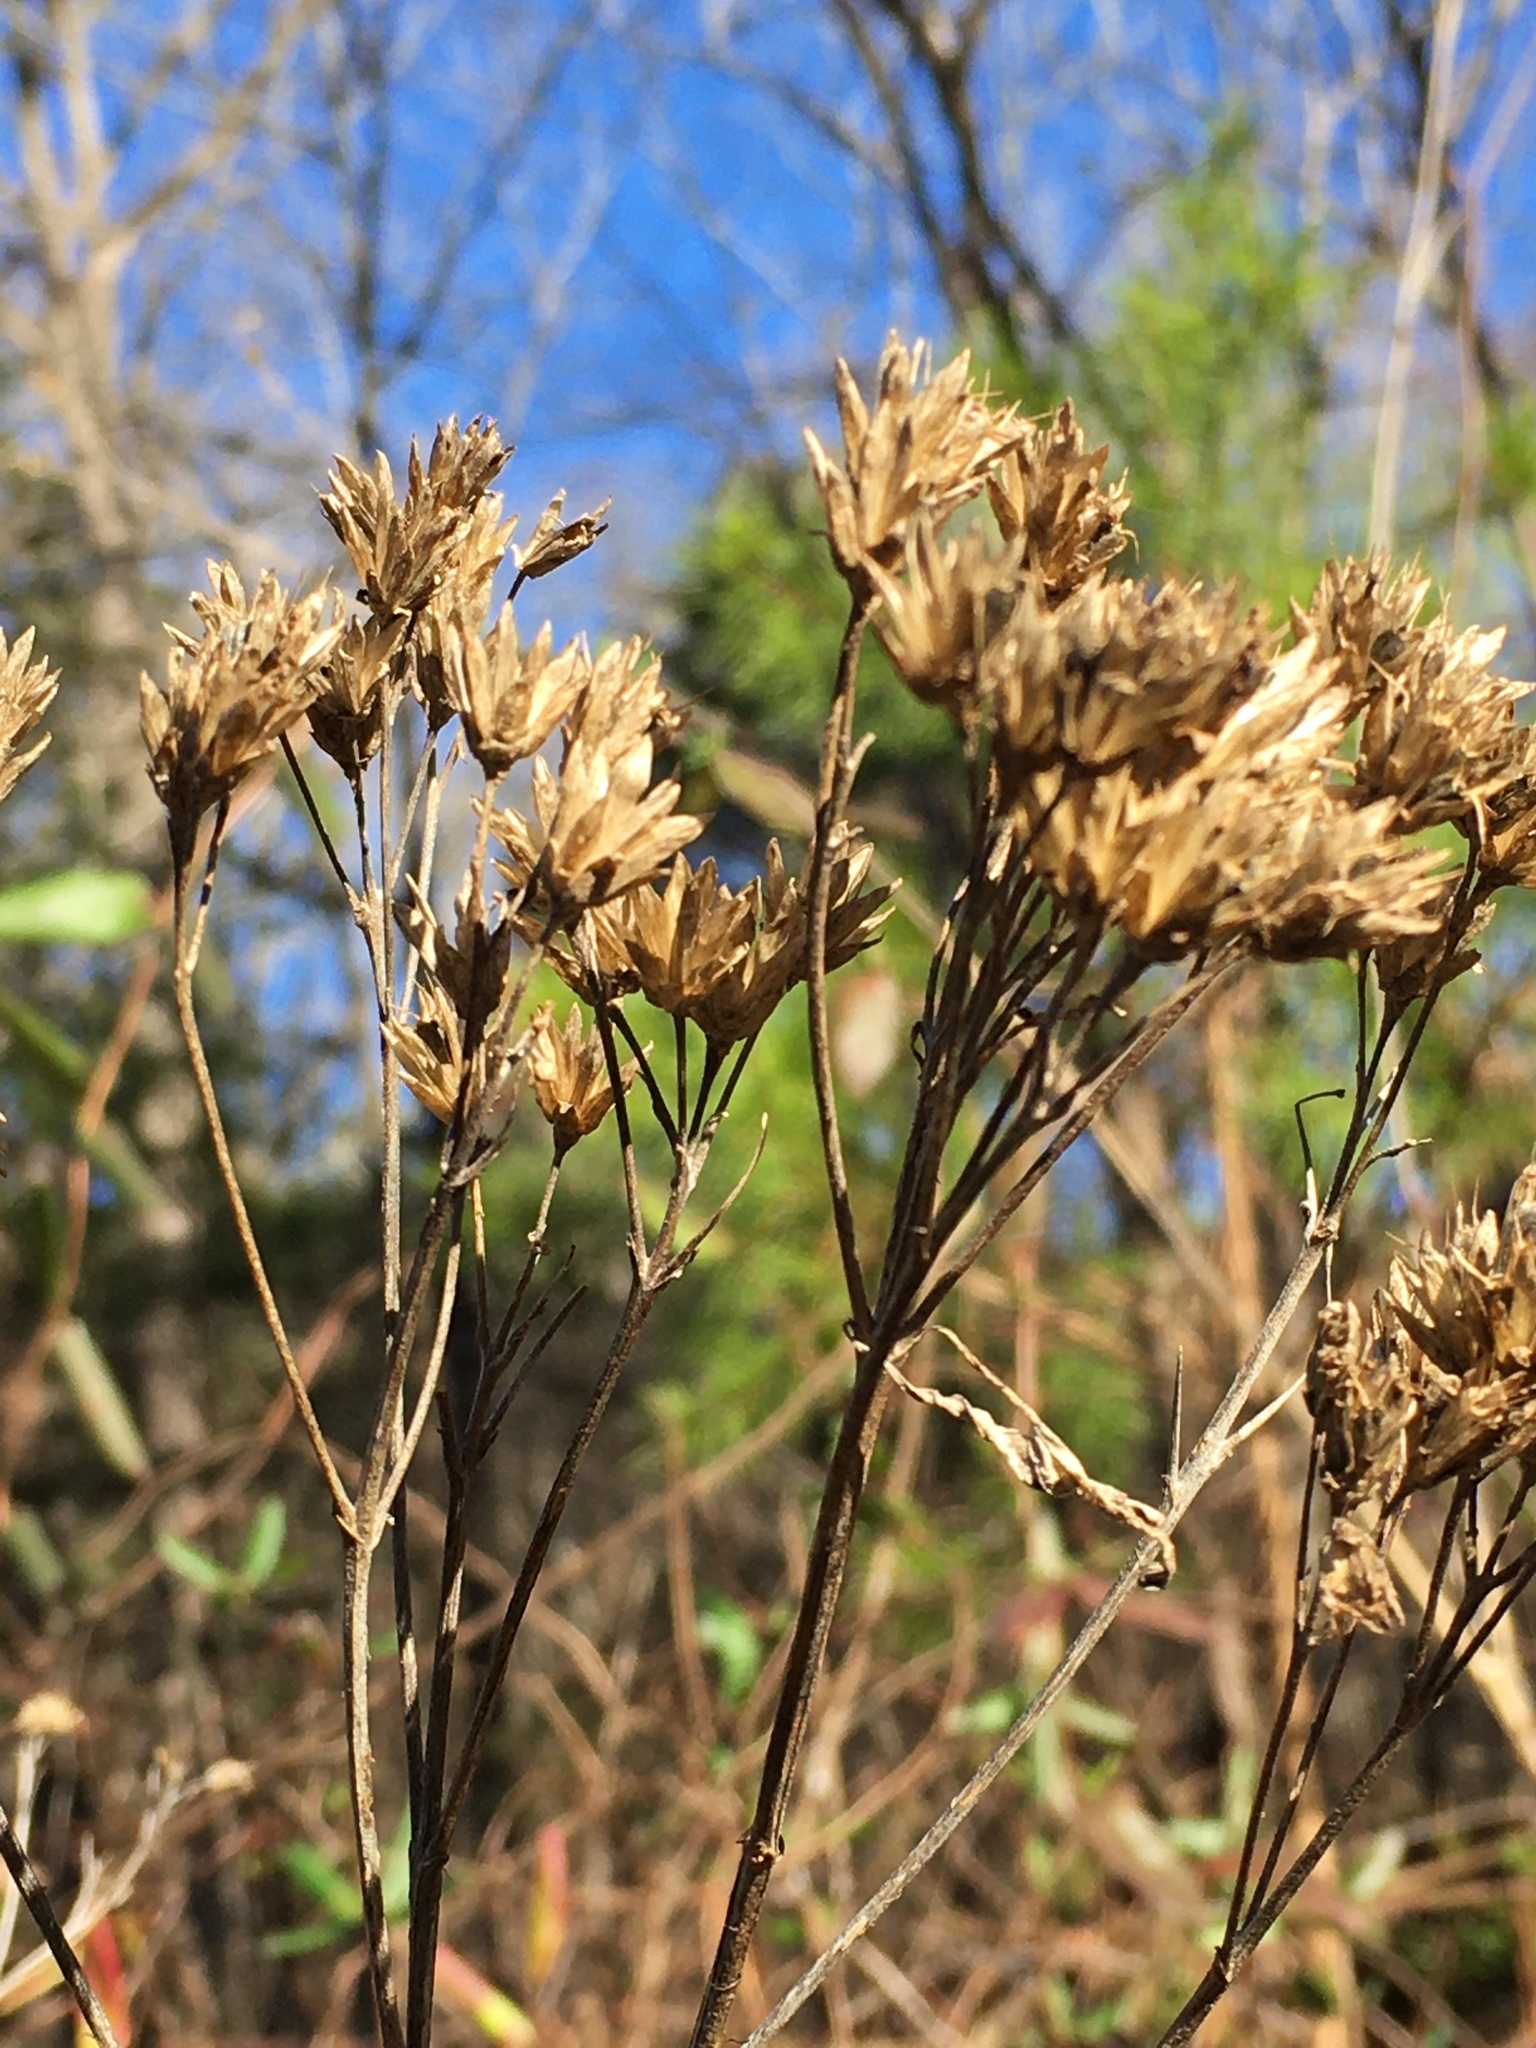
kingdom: Plantae
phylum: Tracheophyta
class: Magnoliopsida
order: Asterales
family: Asteraceae
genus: Verbesina
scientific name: Verbesina occidentalis
